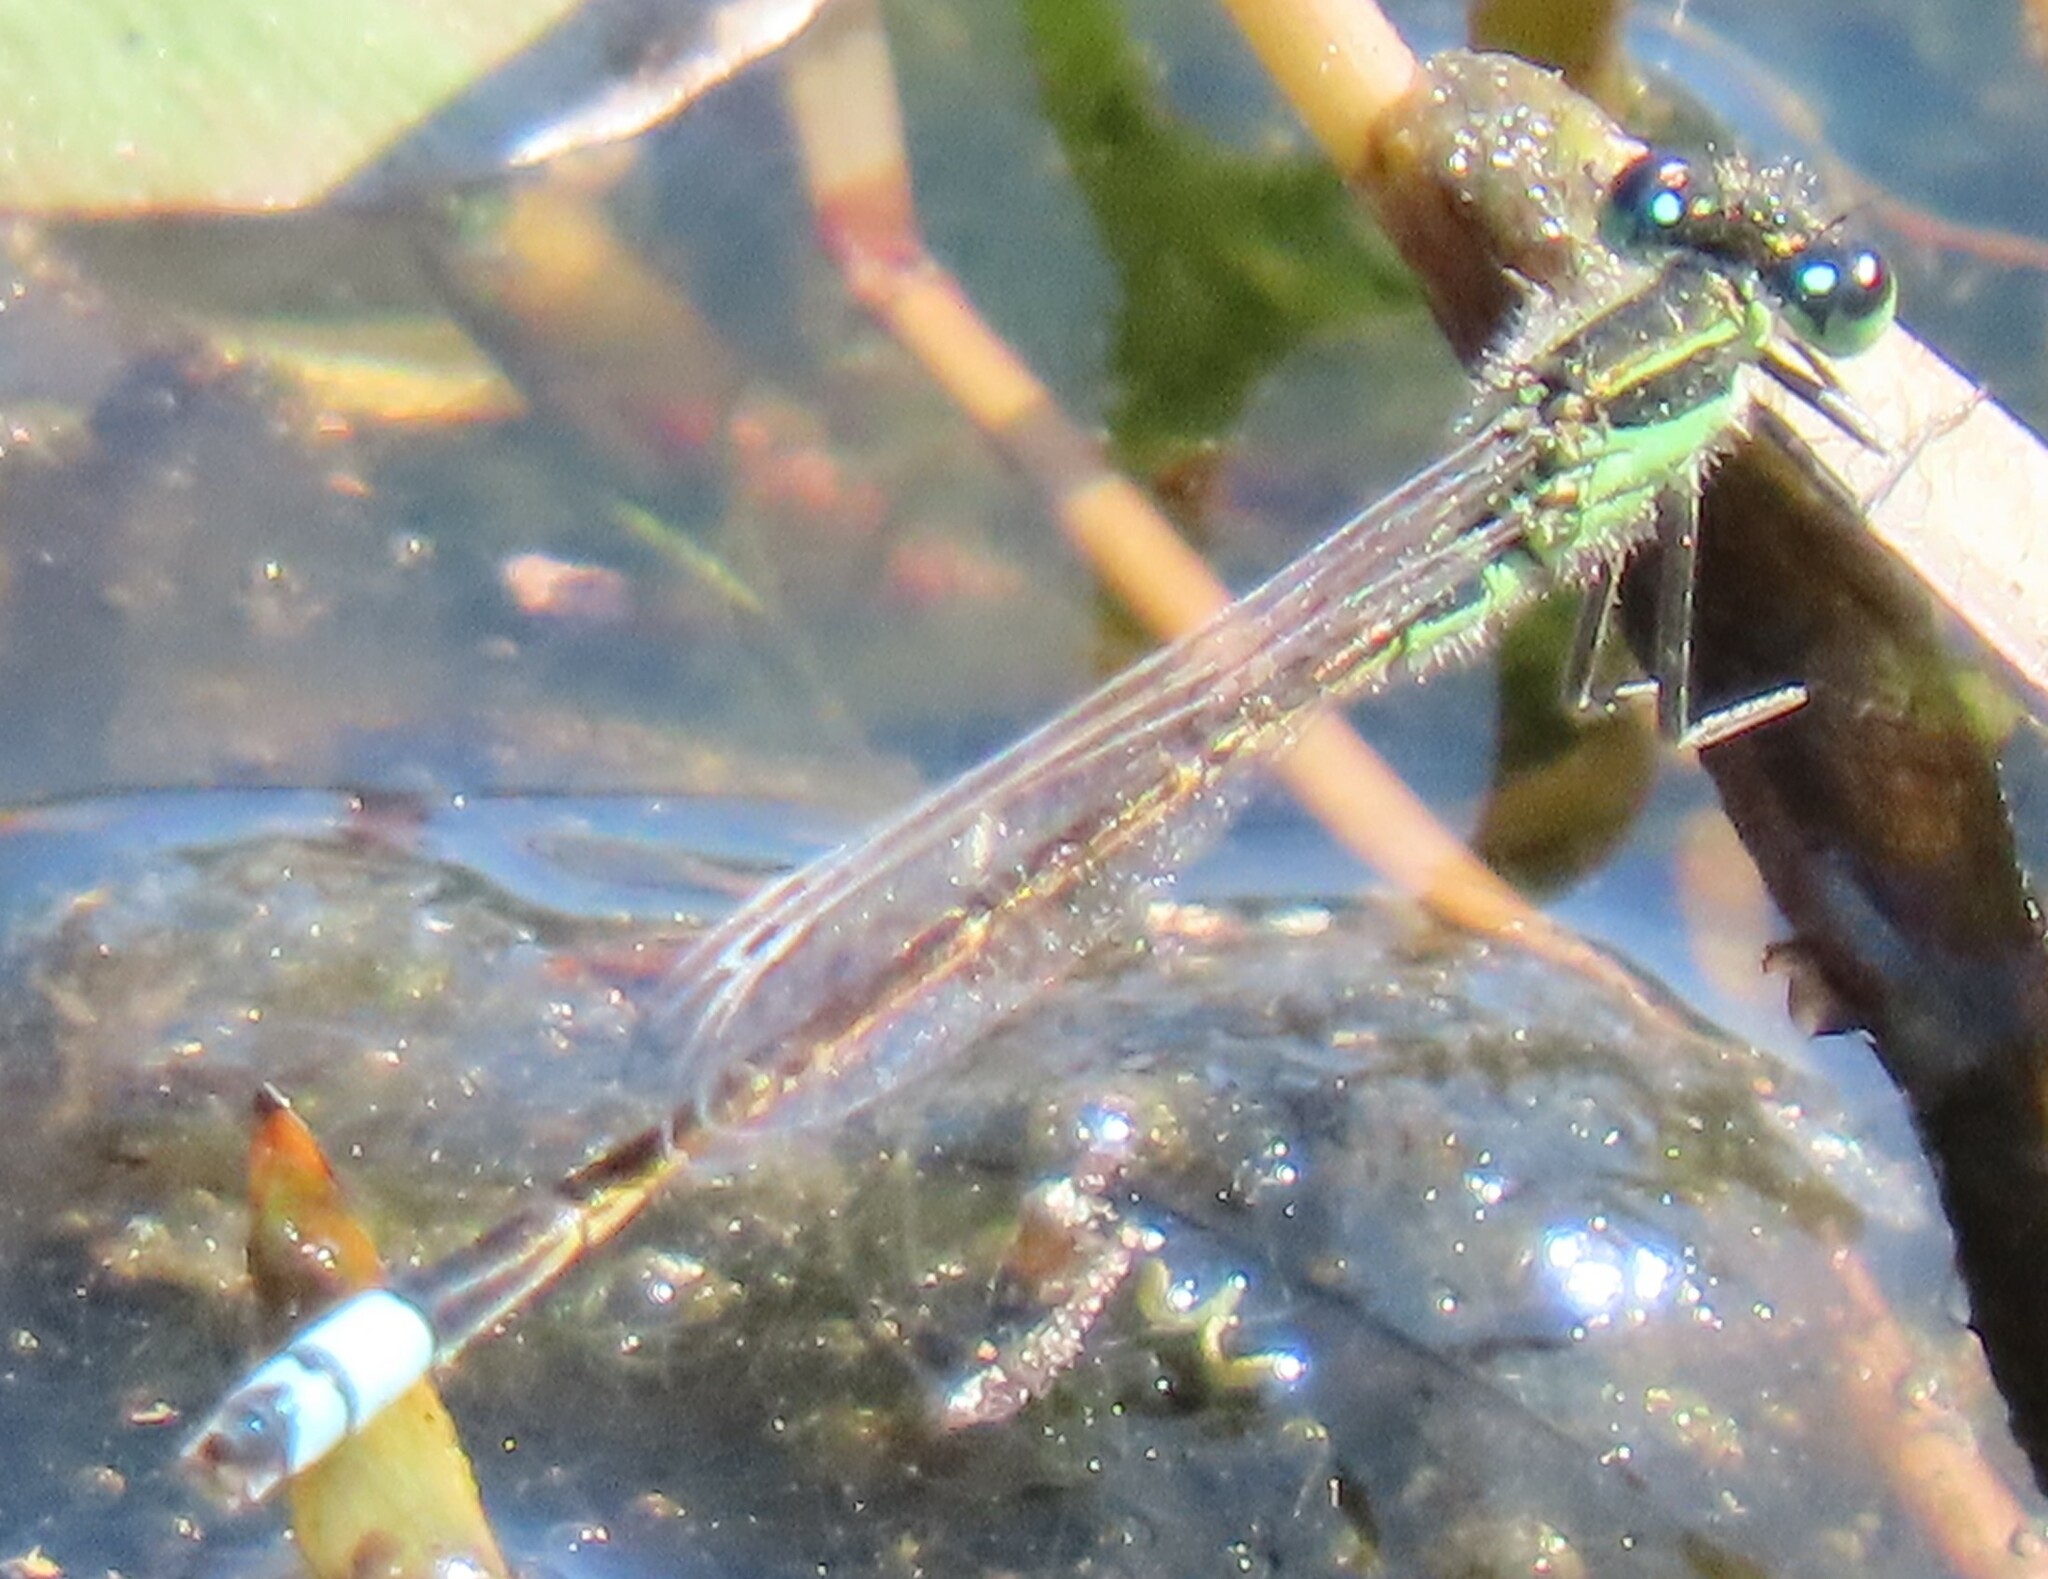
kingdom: Animalia
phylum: Arthropoda
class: Insecta
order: Odonata
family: Coenagrionidae
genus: Ischnura
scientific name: Ischnura ramburii
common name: Rambur's forktail
